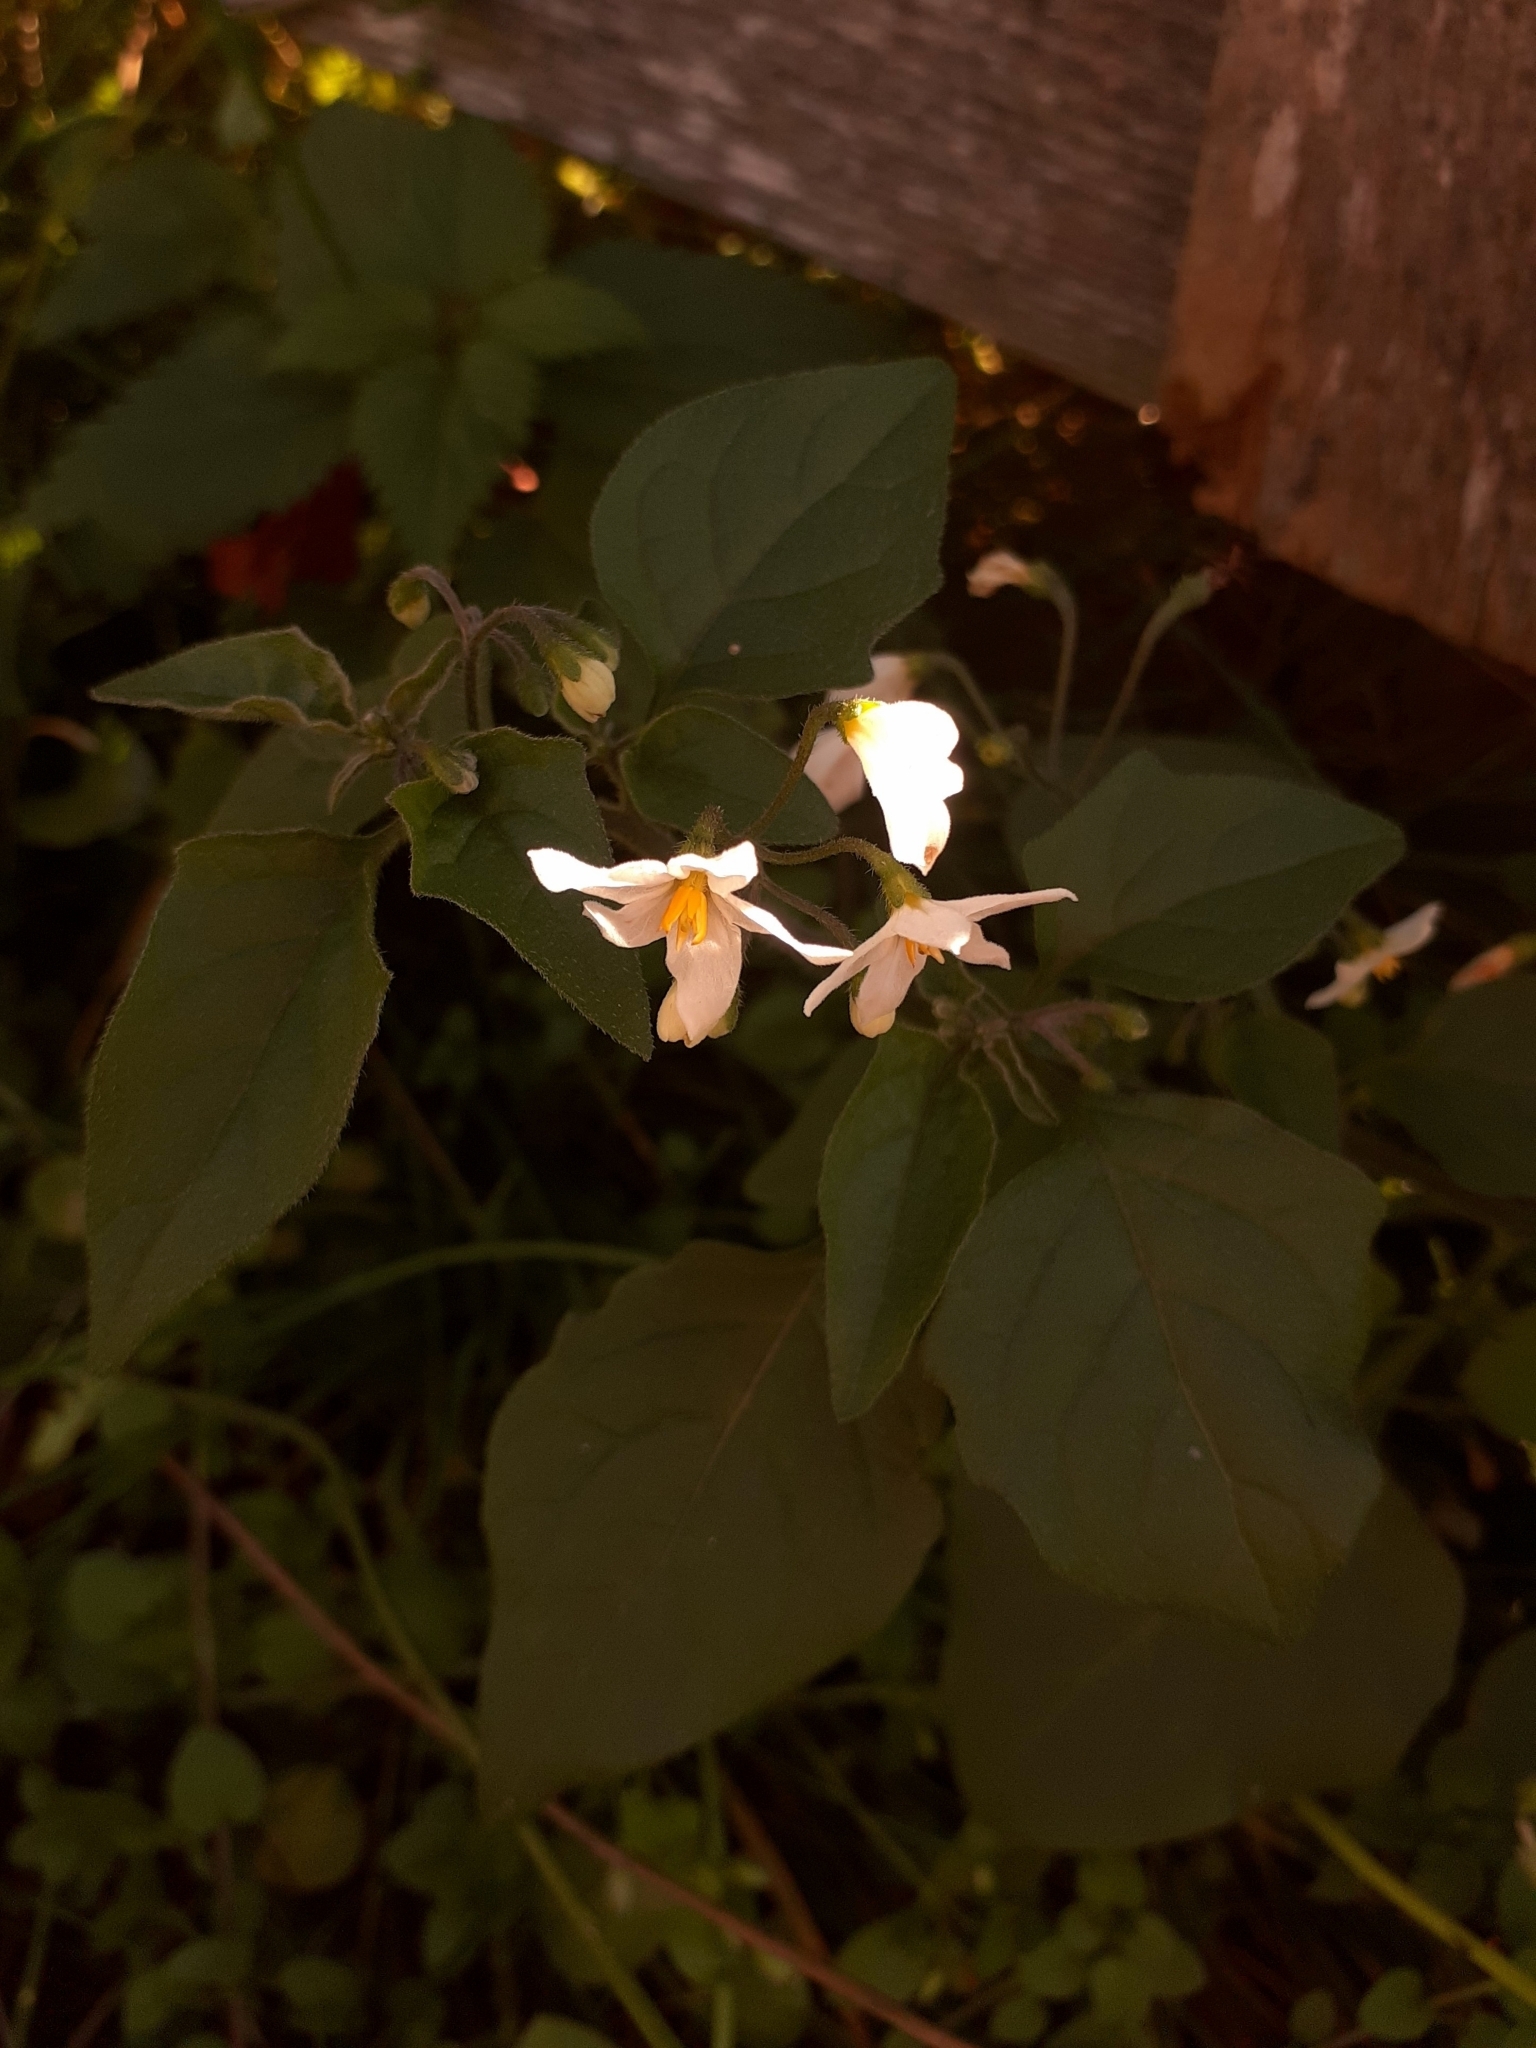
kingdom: Plantae
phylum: Tracheophyta
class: Magnoliopsida
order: Solanales
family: Solanaceae
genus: Solanum
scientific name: Solanum nigrum
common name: Black nightshade
